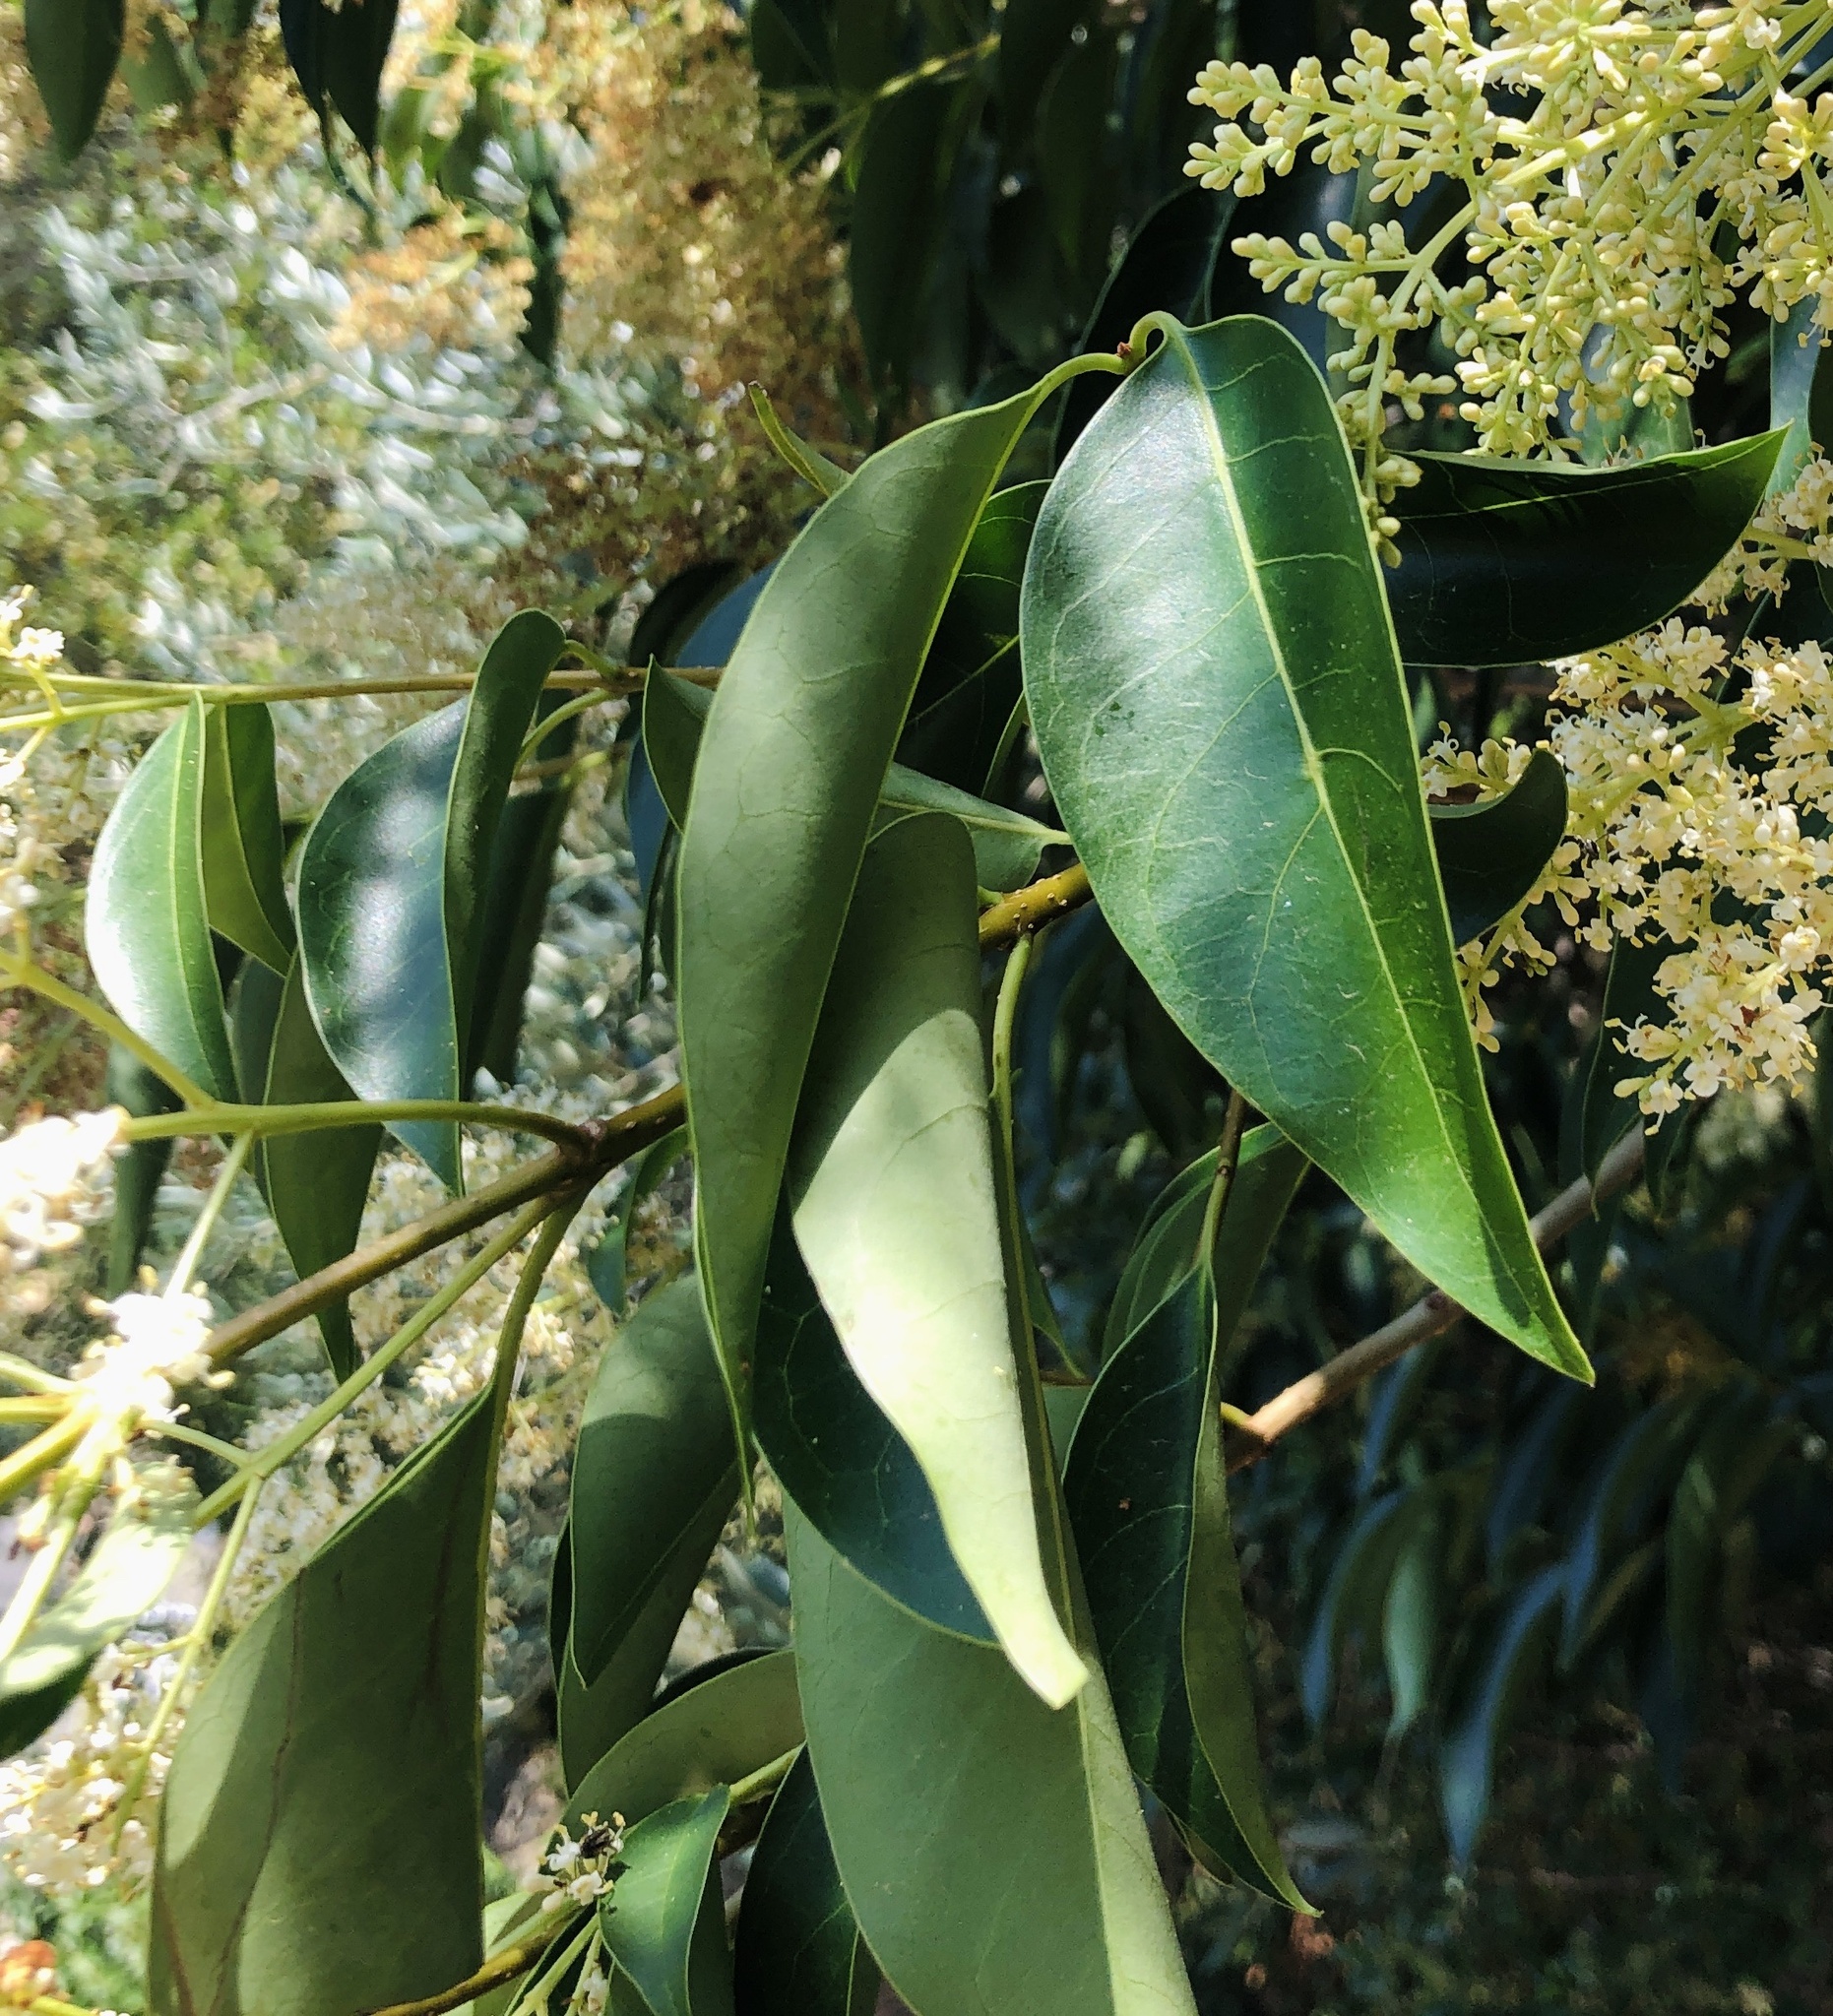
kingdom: Plantae
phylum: Tracheophyta
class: Magnoliopsida
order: Lamiales
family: Oleaceae
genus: Ligustrum
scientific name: Ligustrum lucidum
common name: Glossy privet
